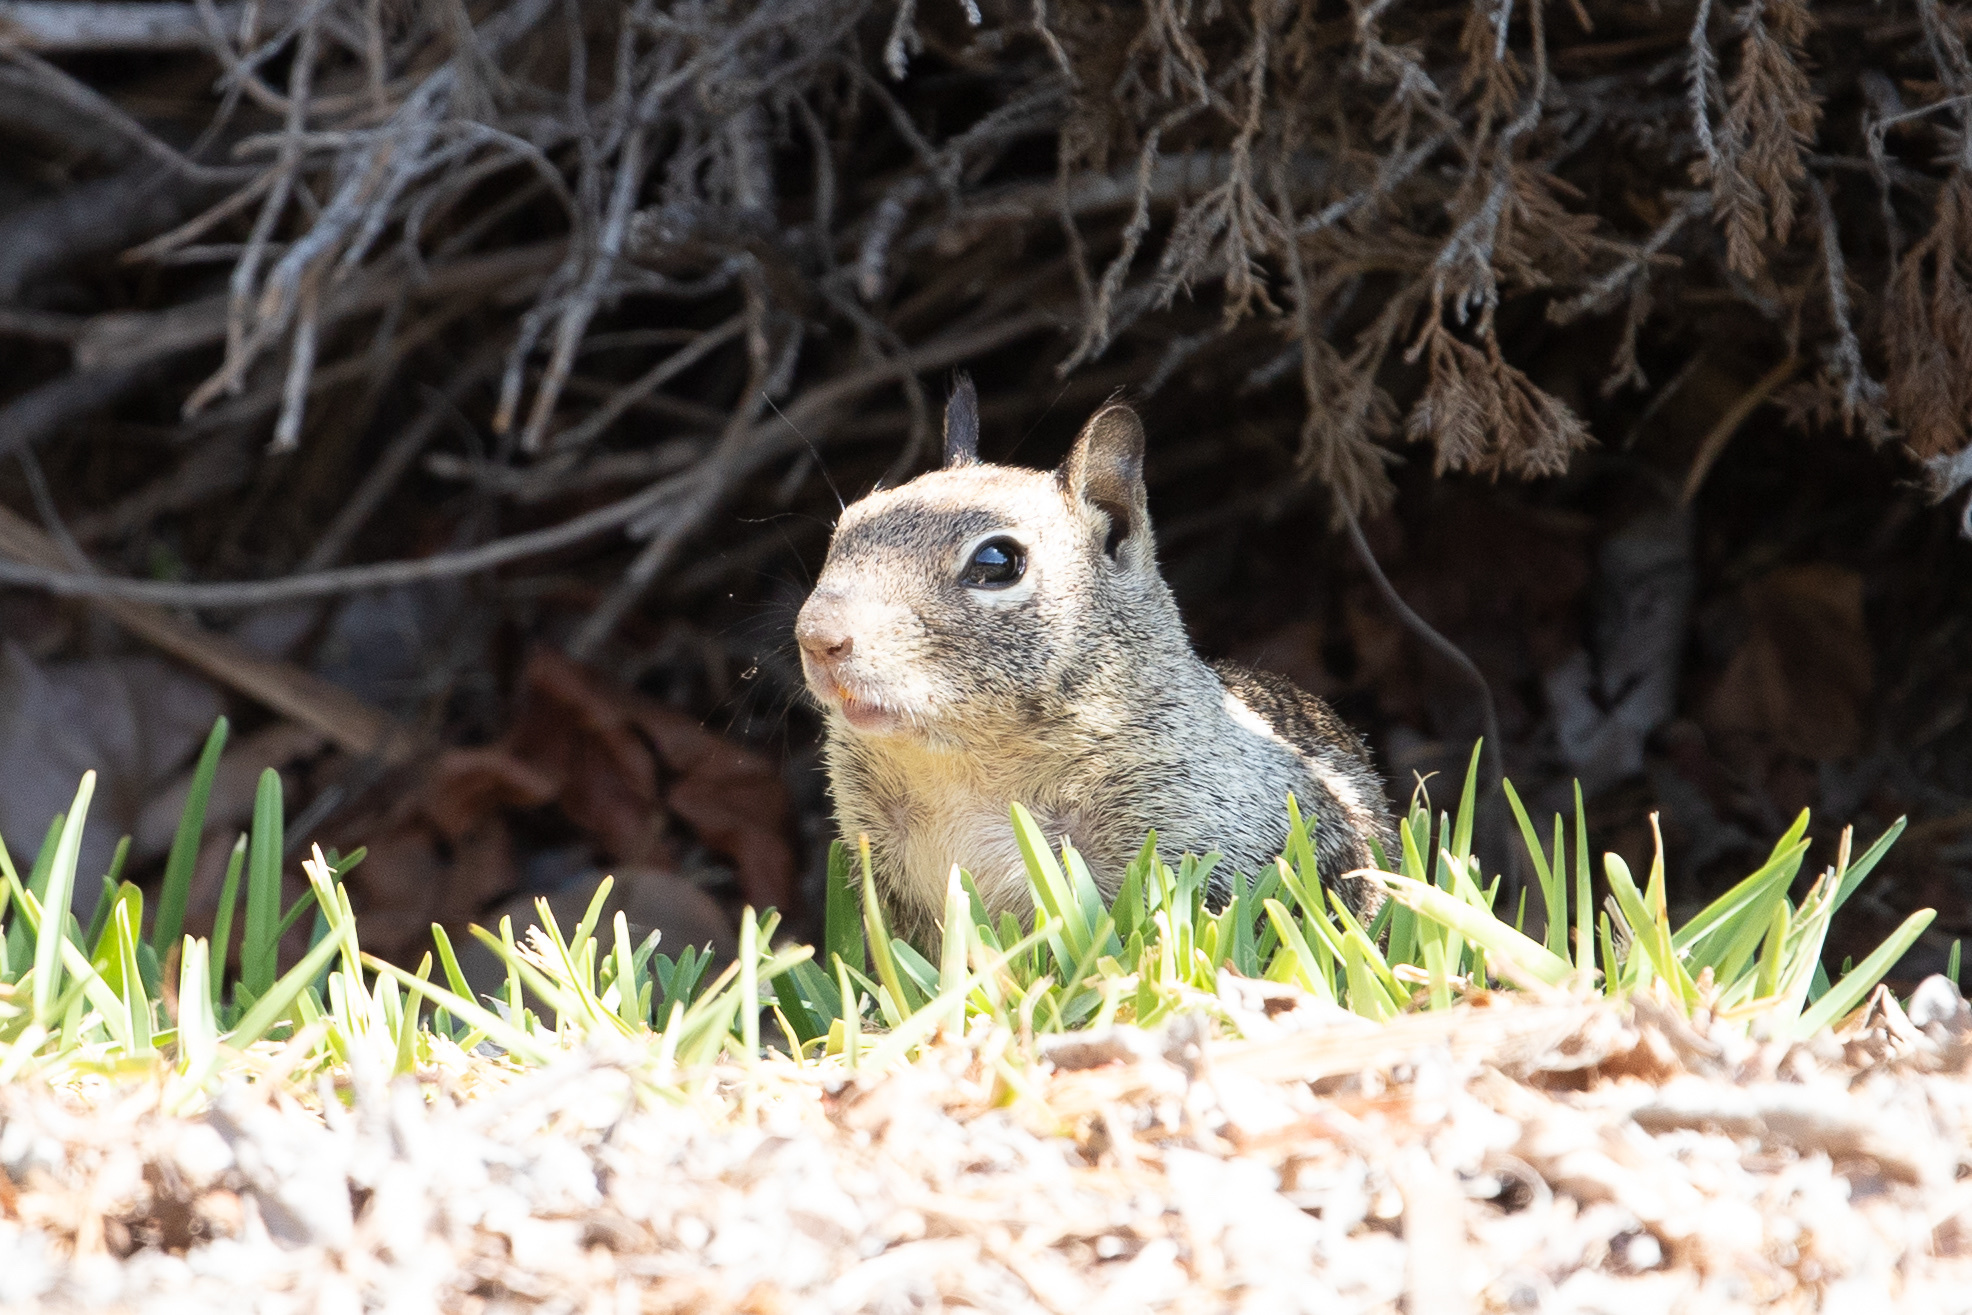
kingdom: Animalia
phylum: Chordata
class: Mammalia
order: Rodentia
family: Sciuridae
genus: Otospermophilus
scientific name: Otospermophilus beecheyi
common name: California ground squirrel
